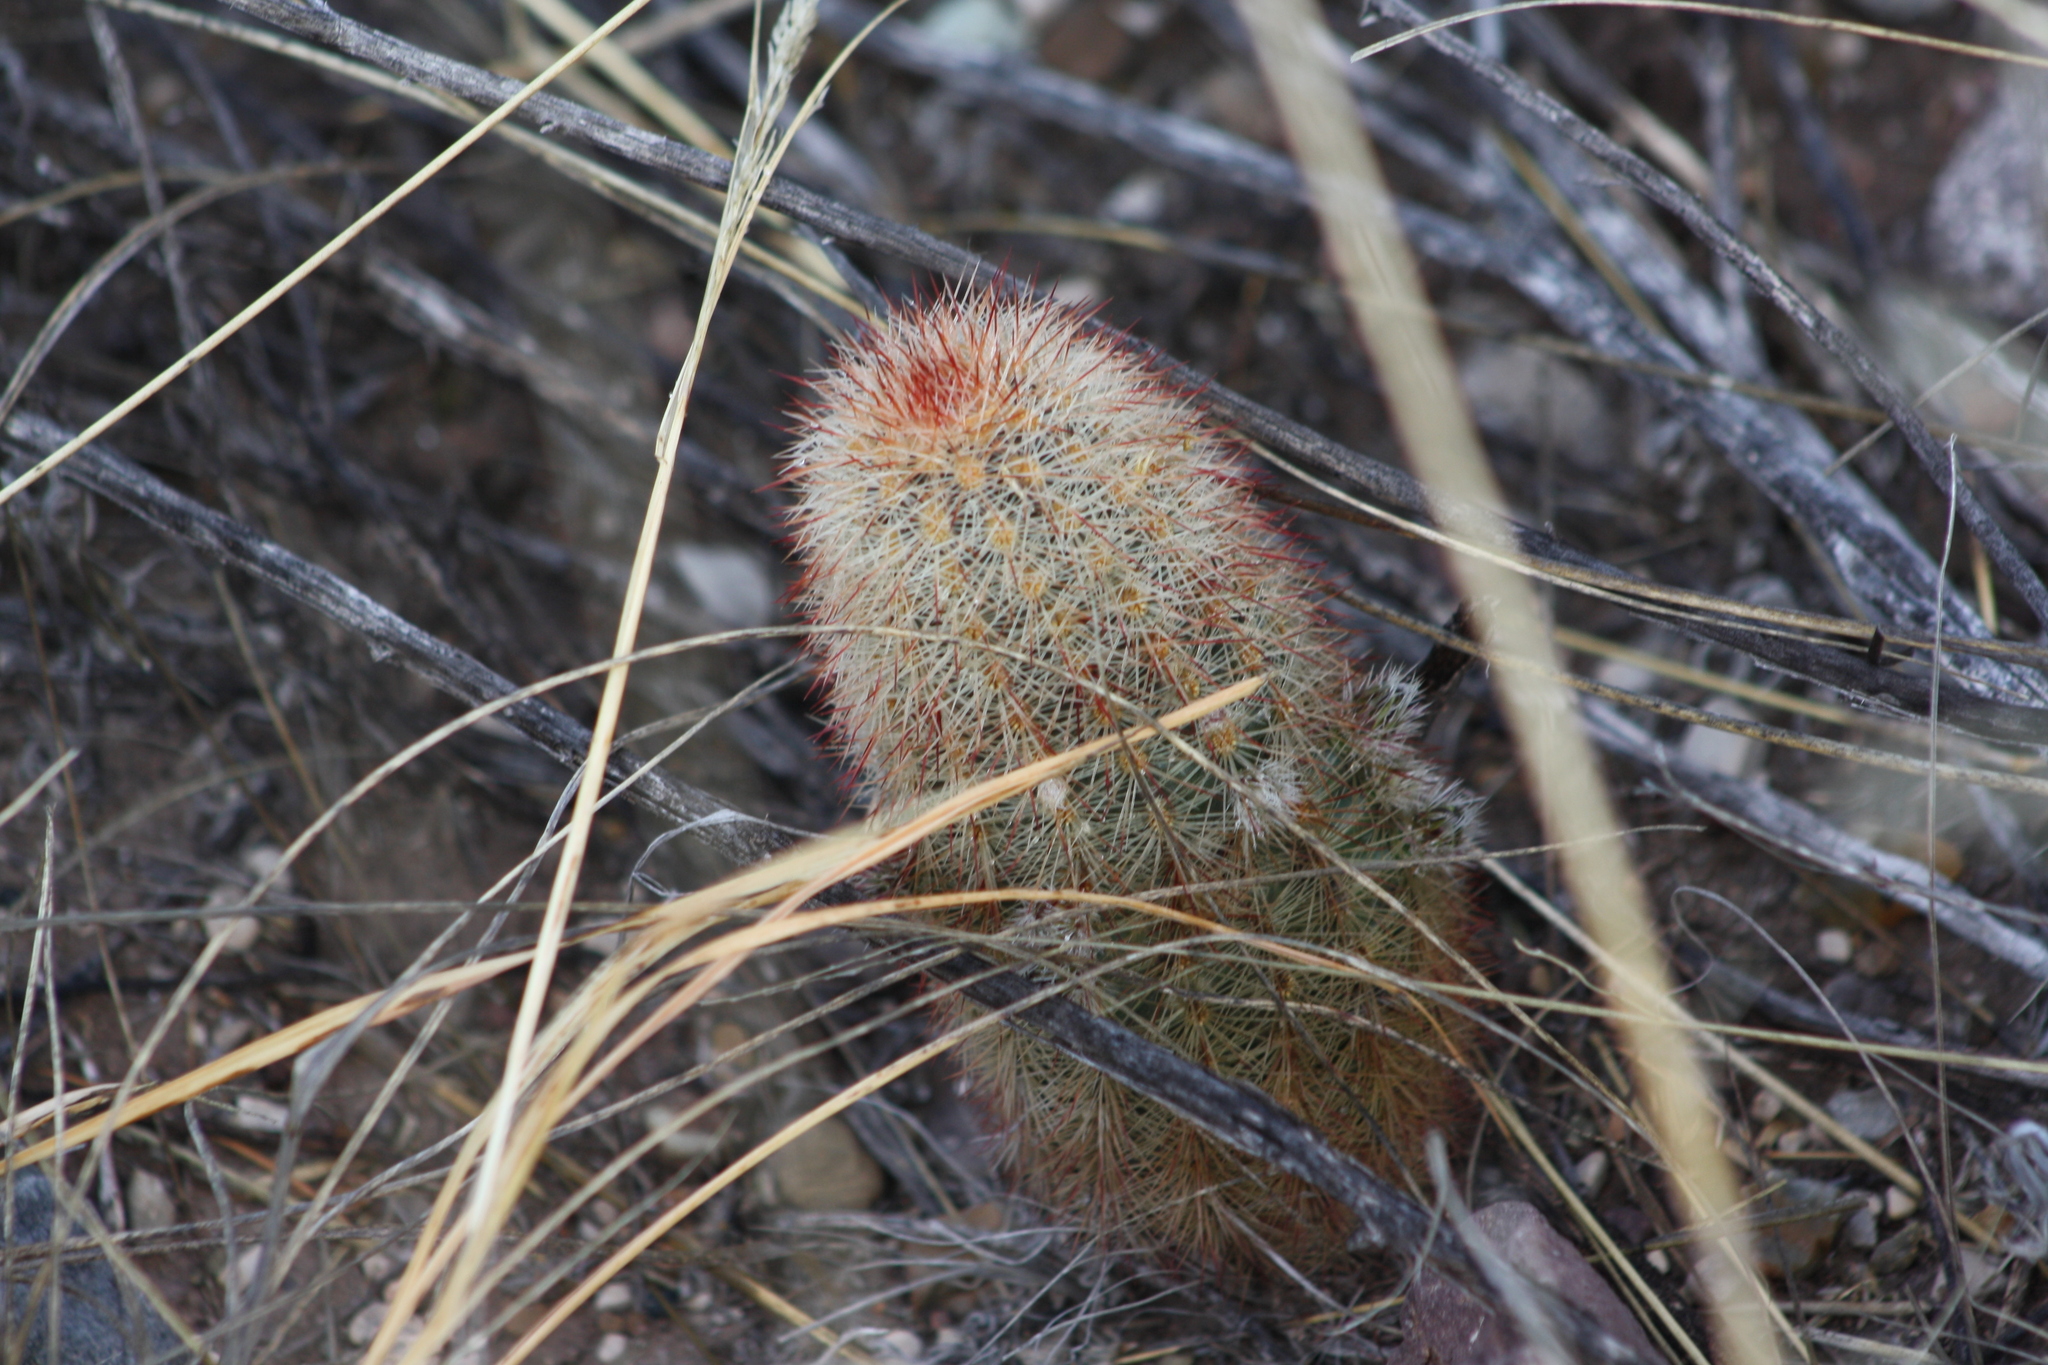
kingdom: Plantae
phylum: Tracheophyta
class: Magnoliopsida
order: Caryophyllales
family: Cactaceae
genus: Echinocereus
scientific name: Echinocereus russanthus
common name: Brownspine hedgehog cactus
